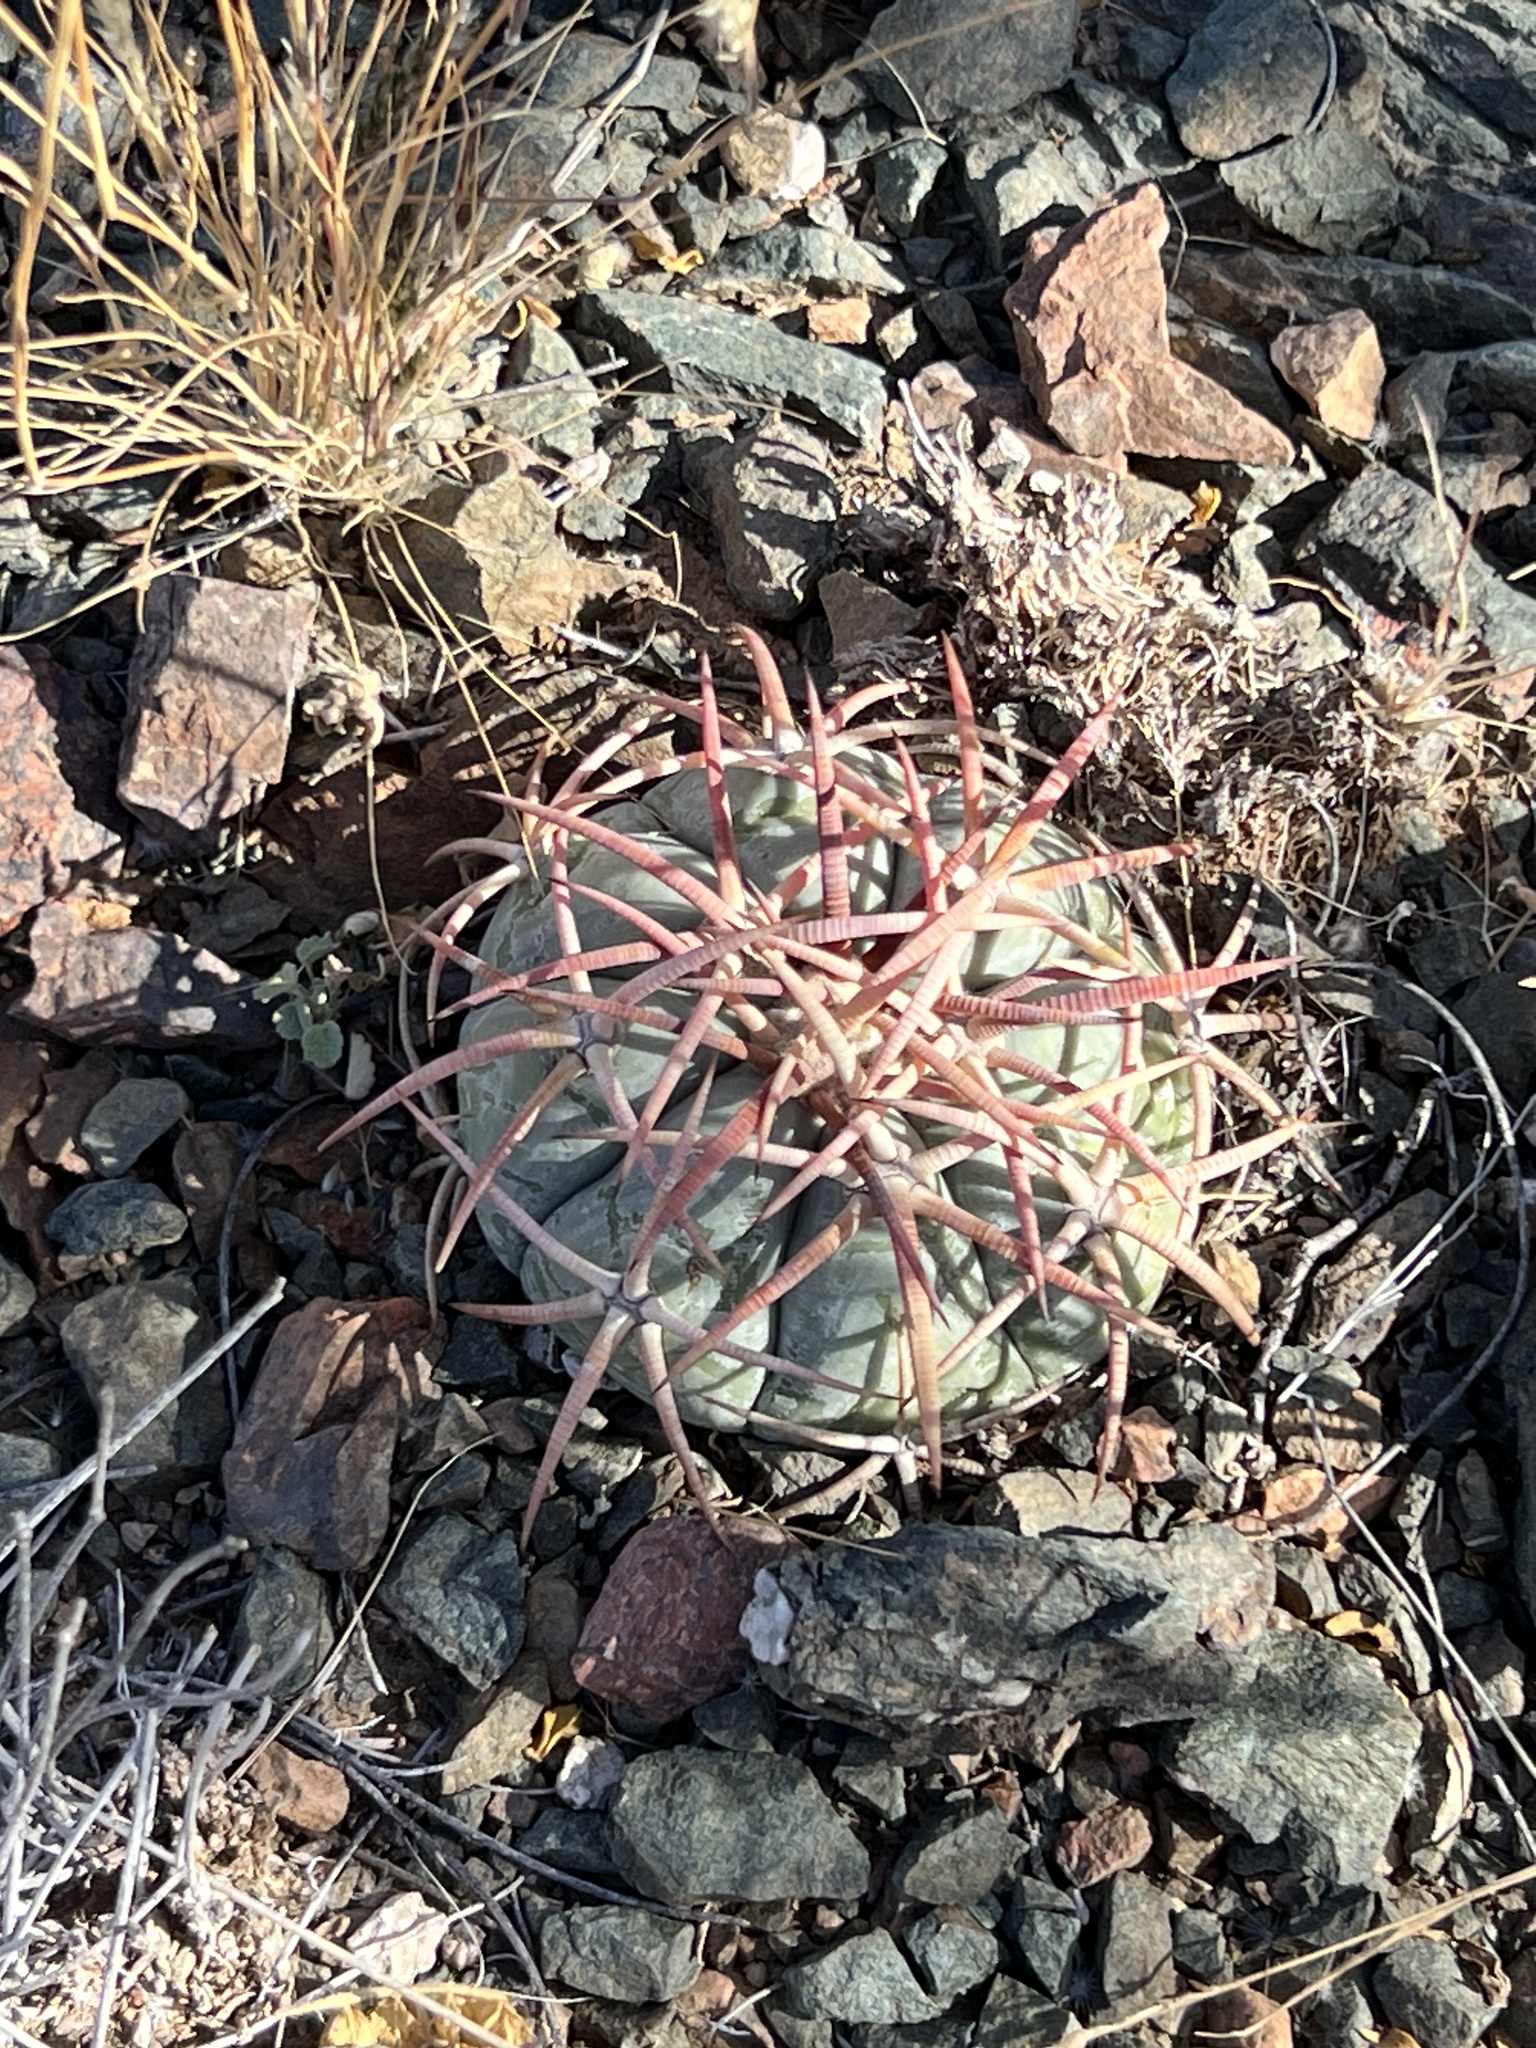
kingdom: Plantae
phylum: Tracheophyta
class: Magnoliopsida
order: Caryophyllales
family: Cactaceae
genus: Echinocactus
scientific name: Echinocactus horizonthalonius
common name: Devilshead
